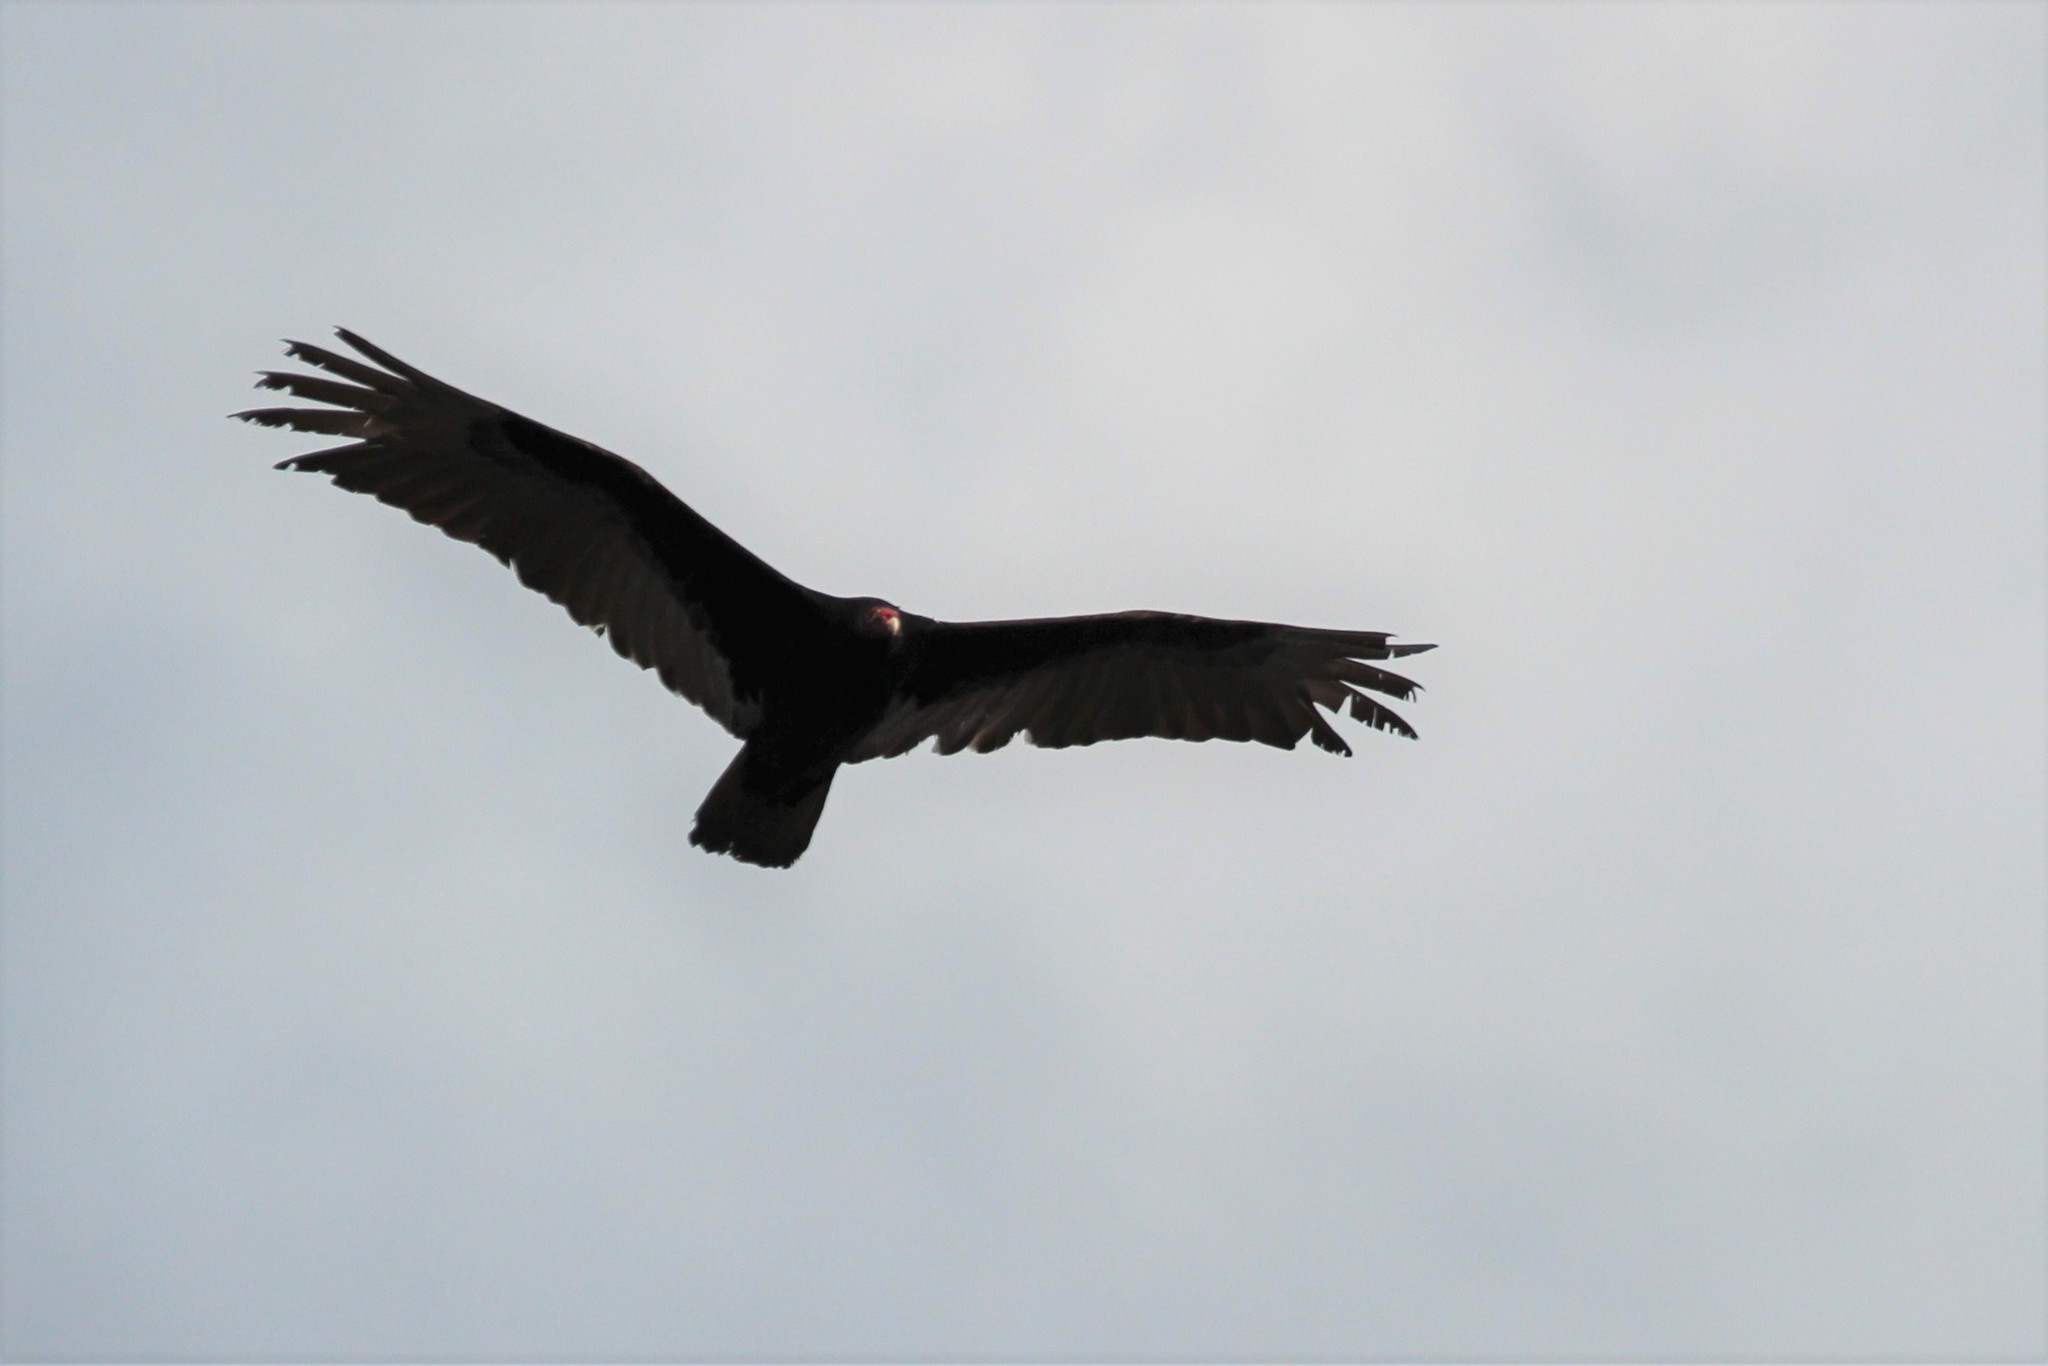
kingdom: Animalia
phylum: Chordata
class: Aves
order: Accipitriformes
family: Cathartidae
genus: Cathartes
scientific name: Cathartes aura
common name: Turkey vulture
